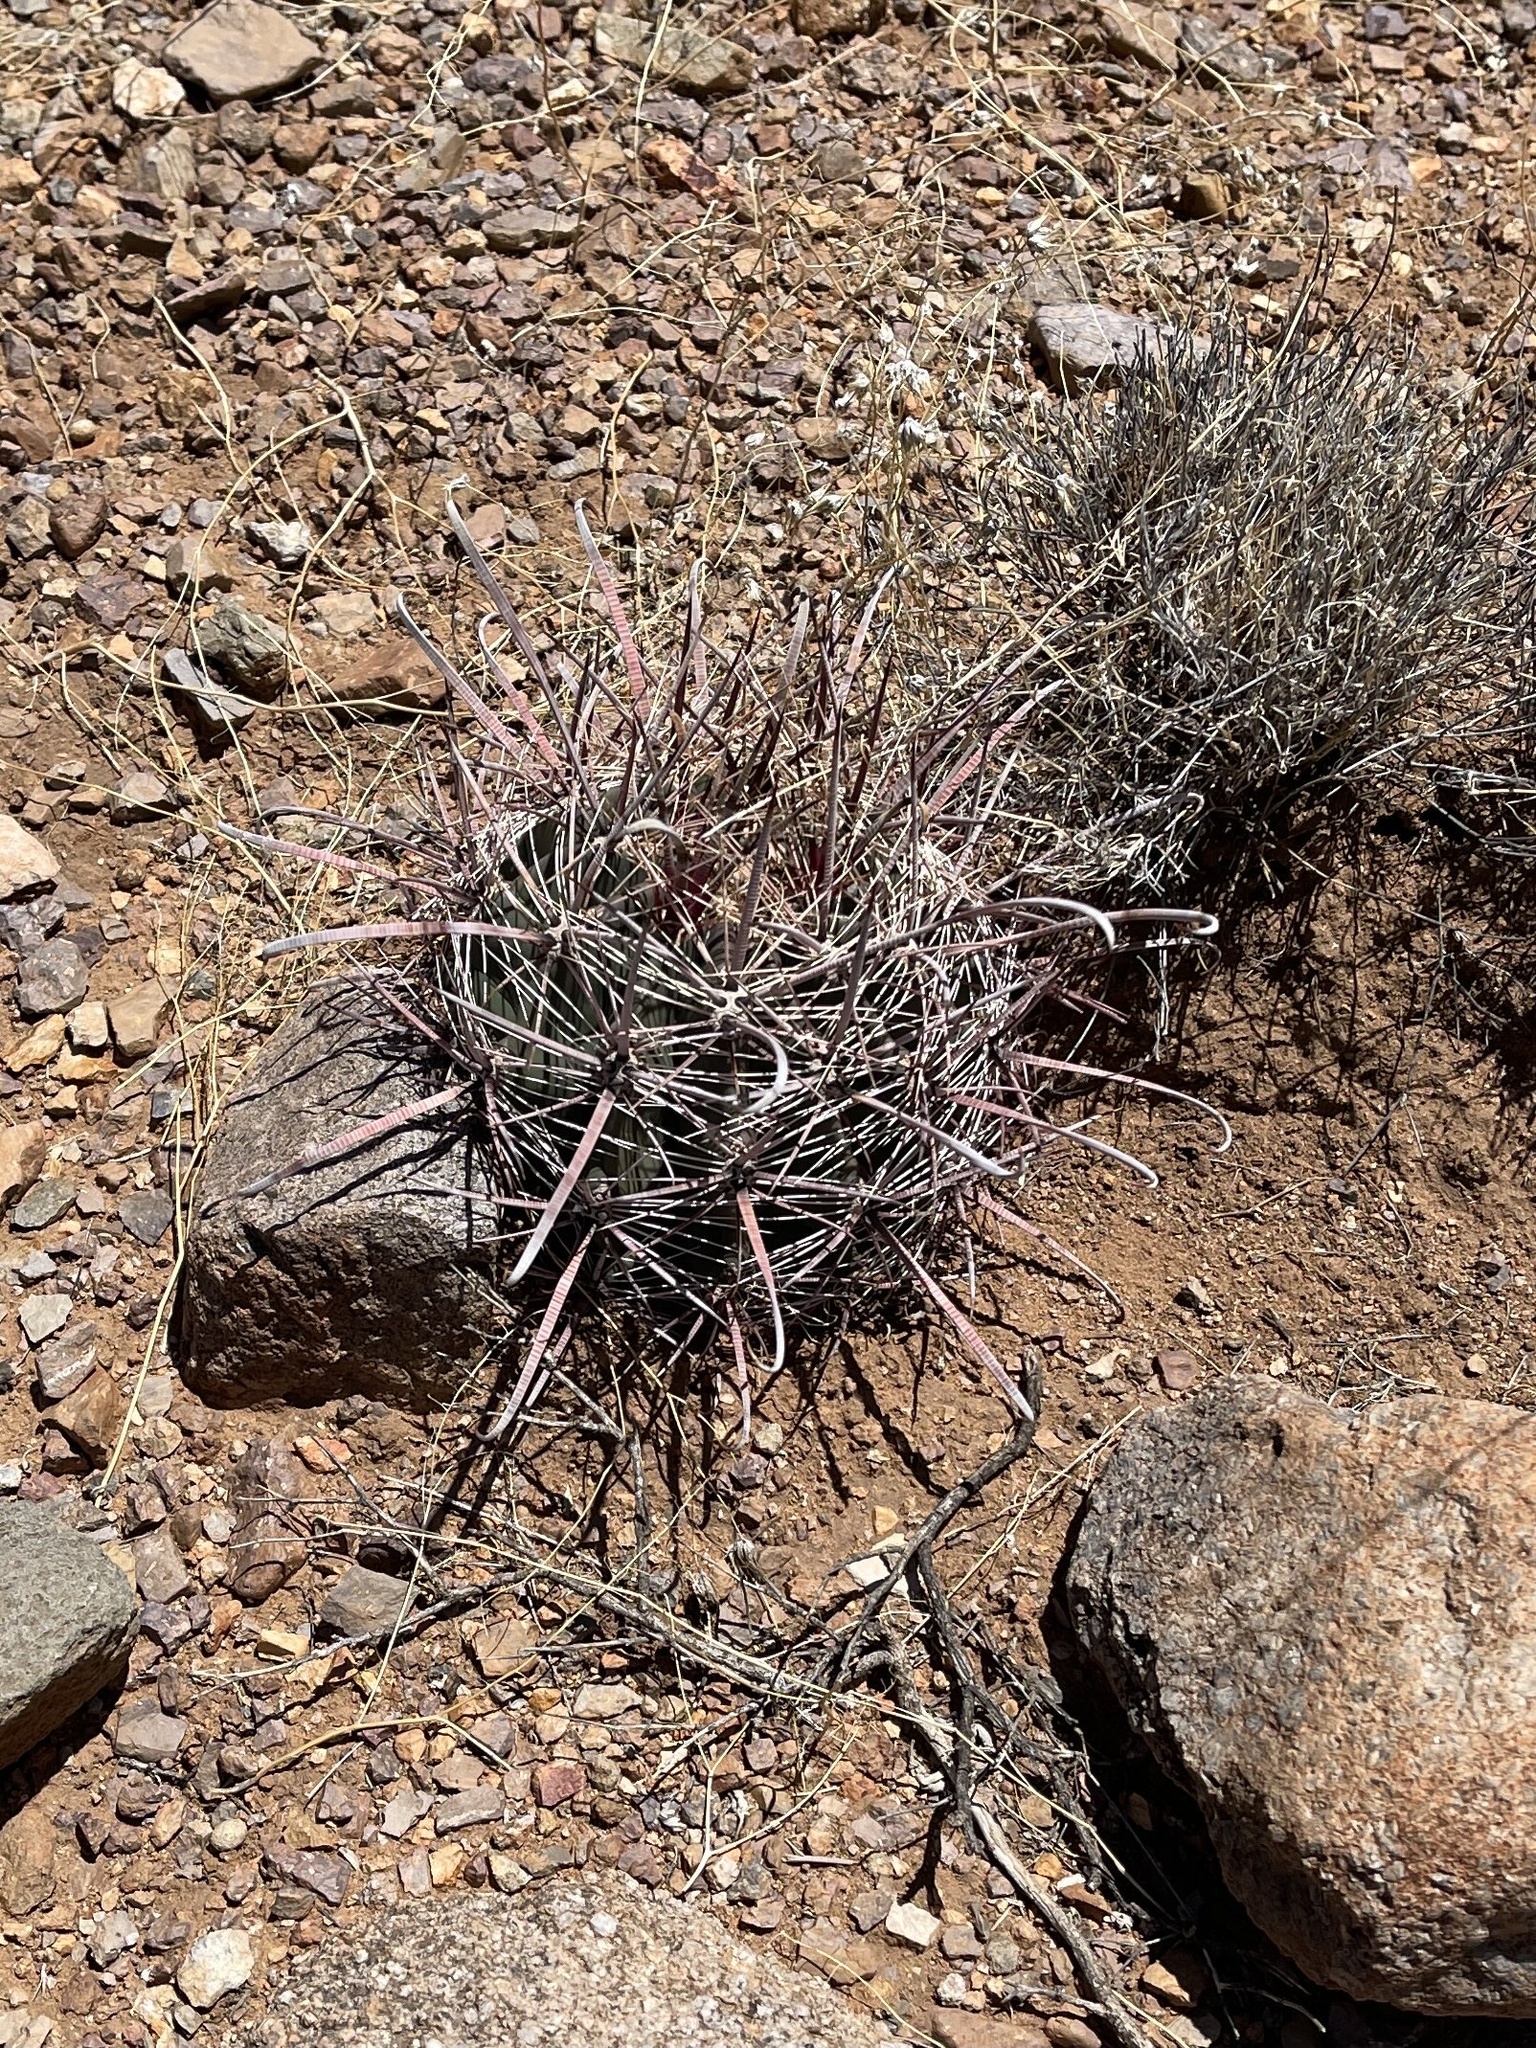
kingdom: Plantae
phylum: Tracheophyta
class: Magnoliopsida
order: Caryophyllales
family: Cactaceae
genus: Ferocactus
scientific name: Ferocactus wislizeni
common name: Candy barrel cactus
